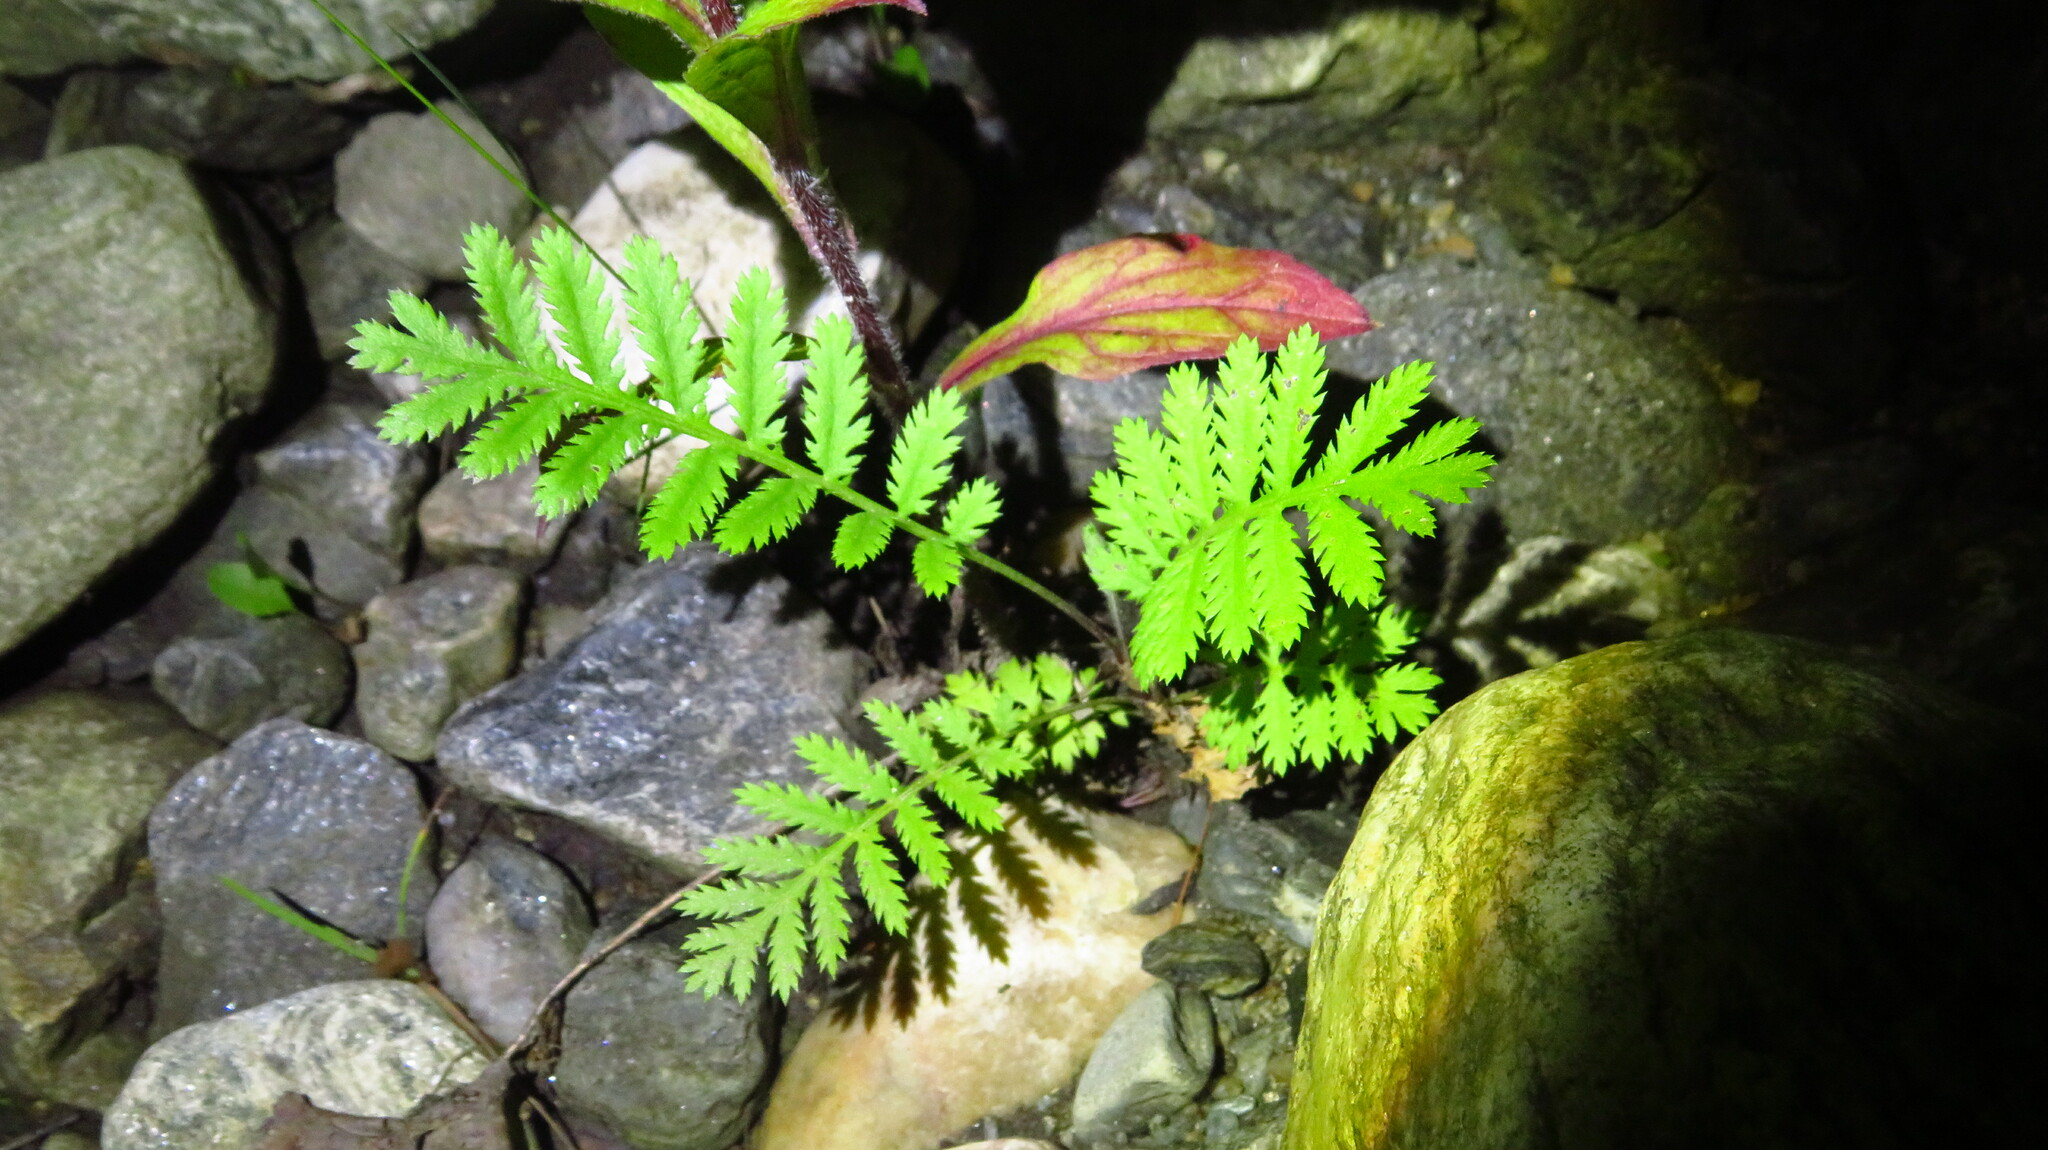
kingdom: Plantae
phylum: Tracheophyta
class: Magnoliopsida
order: Asterales
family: Asteraceae
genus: Tanacetum
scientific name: Tanacetum vulgare
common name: Common tansy
